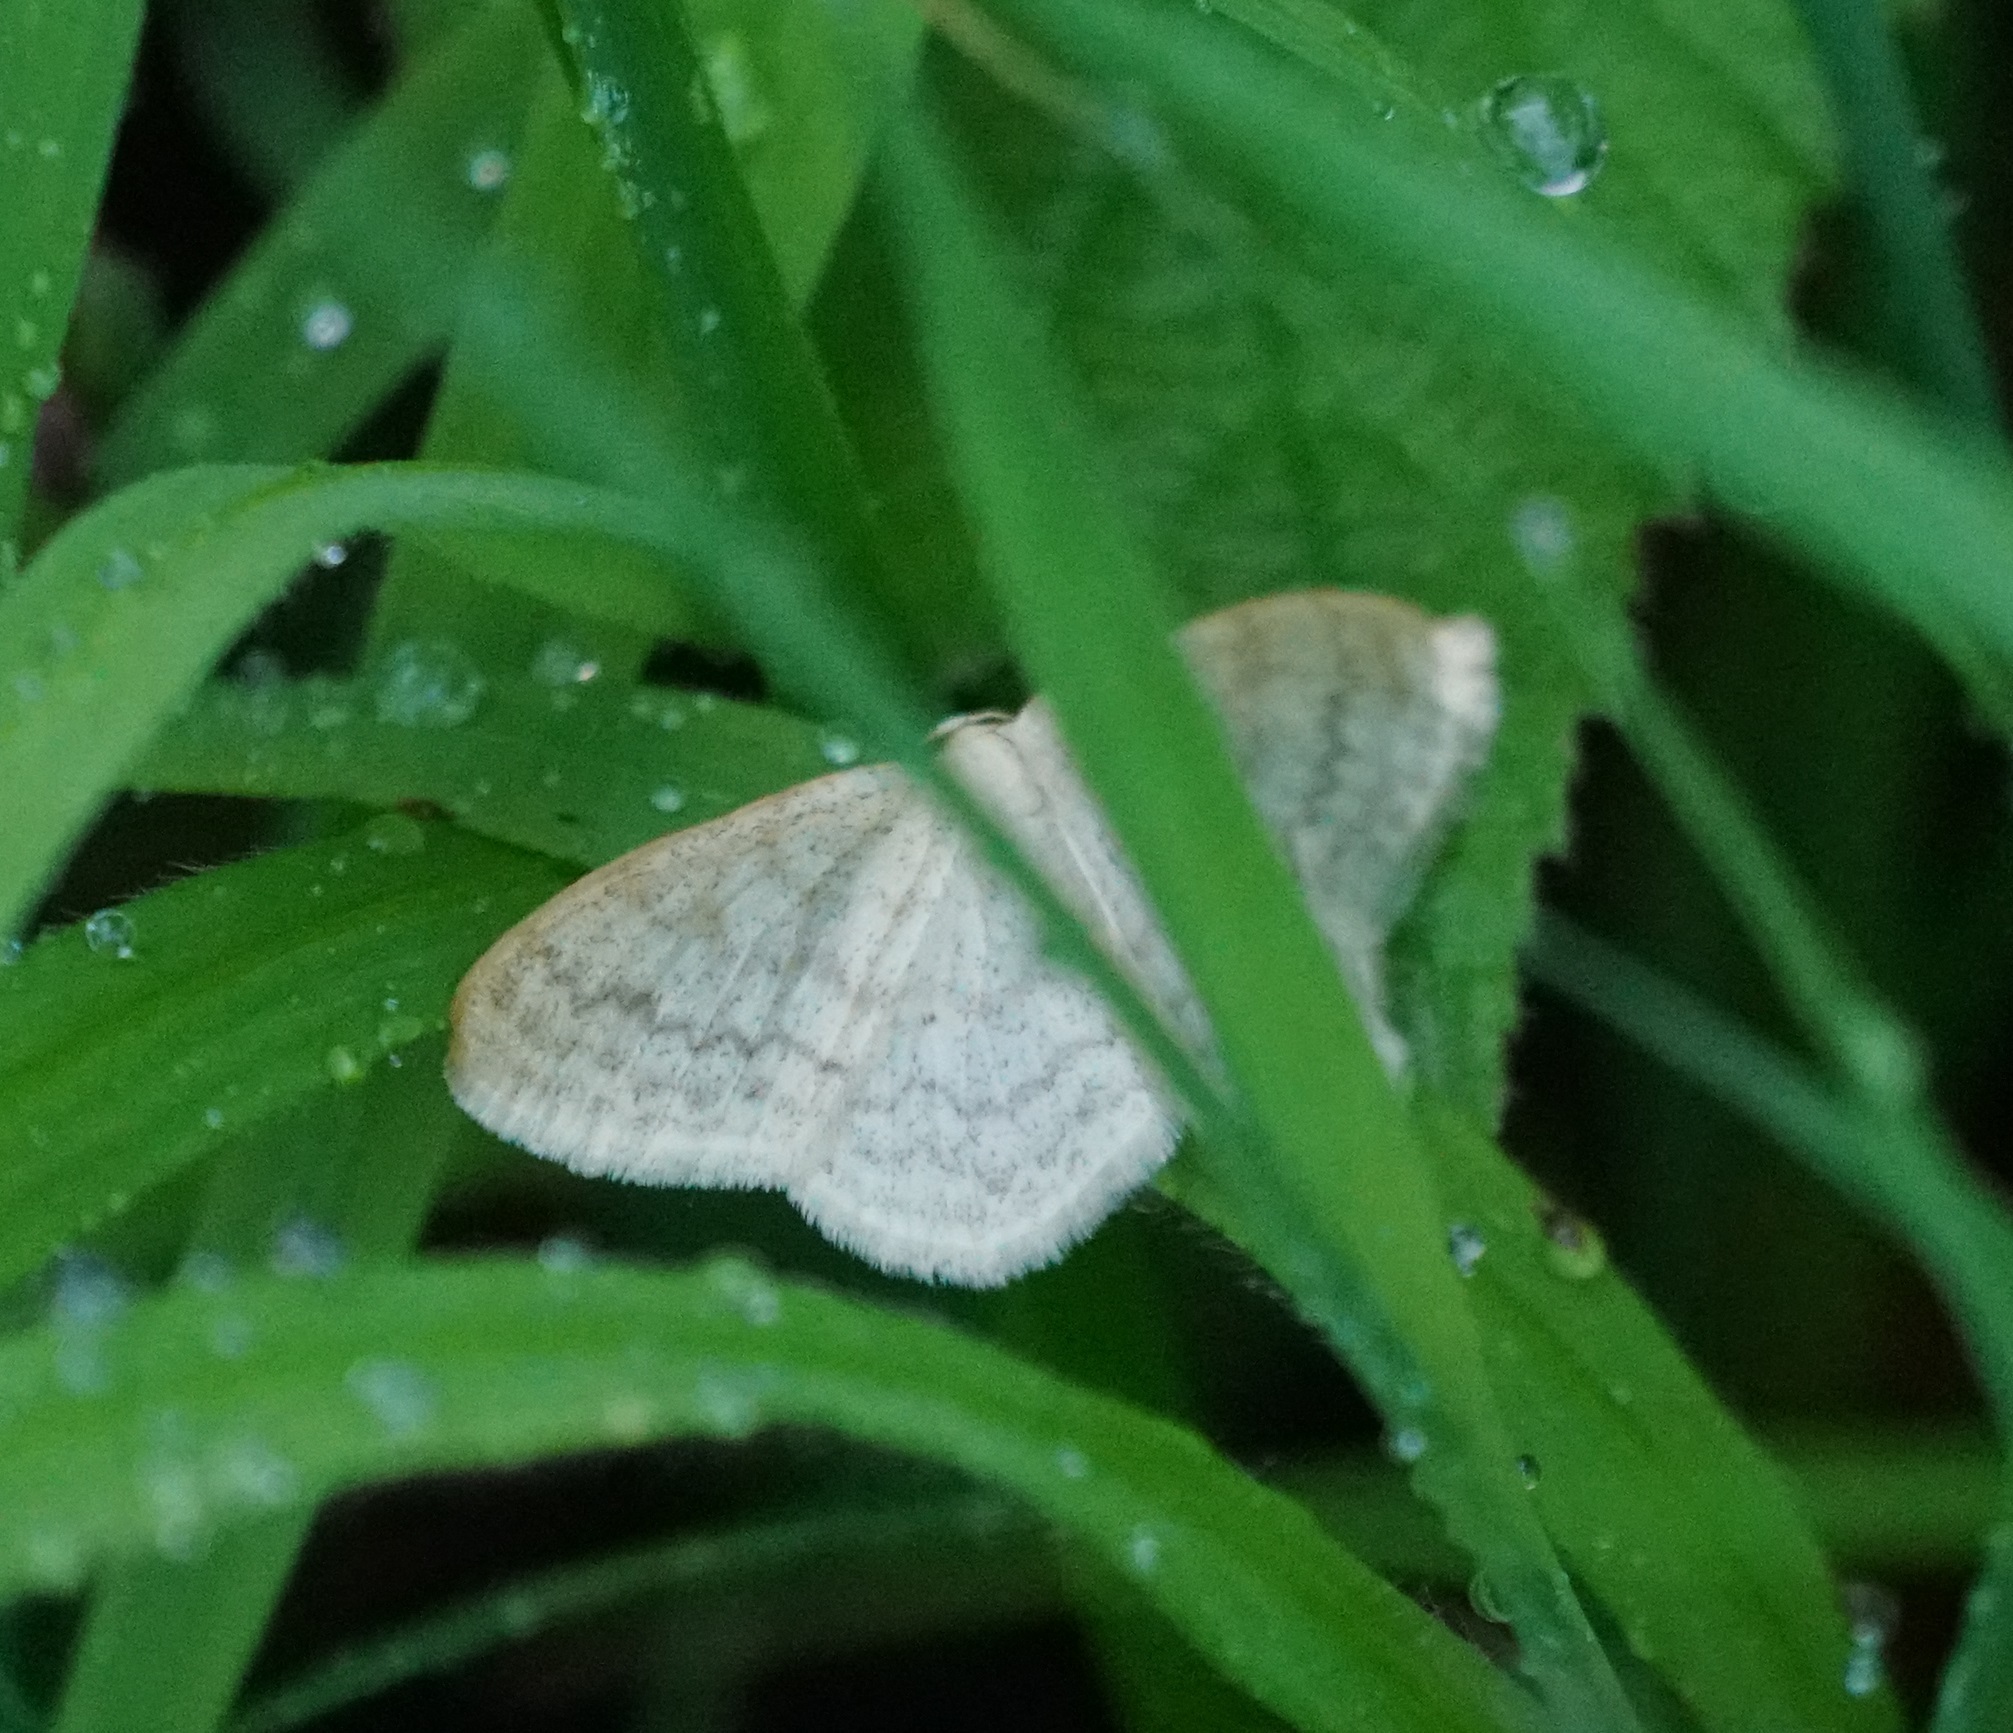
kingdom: Animalia
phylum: Arthropoda
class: Insecta
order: Lepidoptera
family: Geometridae
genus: Scopula
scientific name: Scopula floslactata
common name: Cream wave
